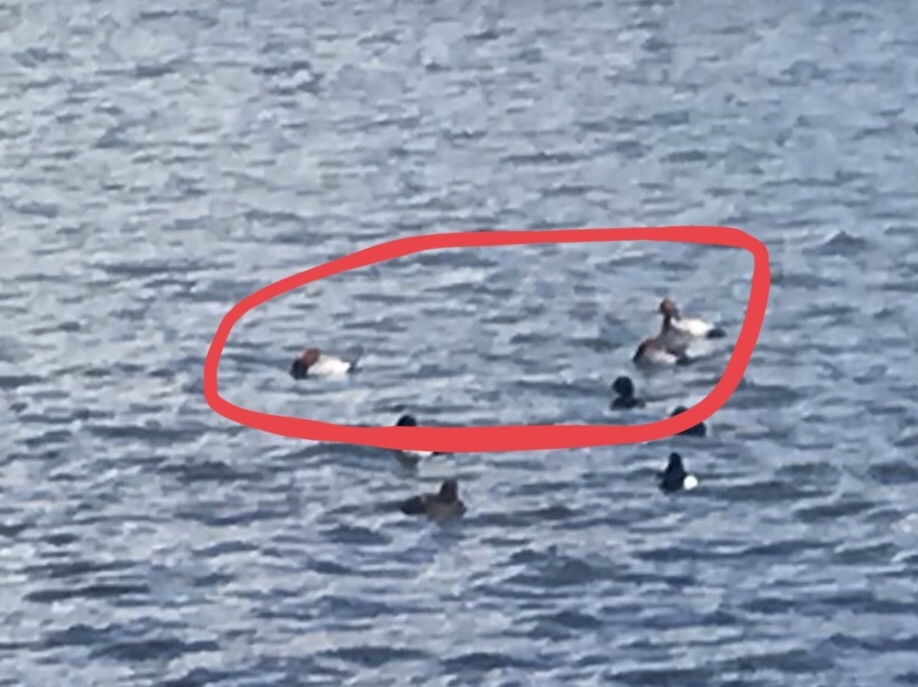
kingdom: Animalia
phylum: Chordata
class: Aves
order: Anseriformes
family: Anatidae
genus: Aythya
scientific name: Aythya ferina
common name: Common pochard
